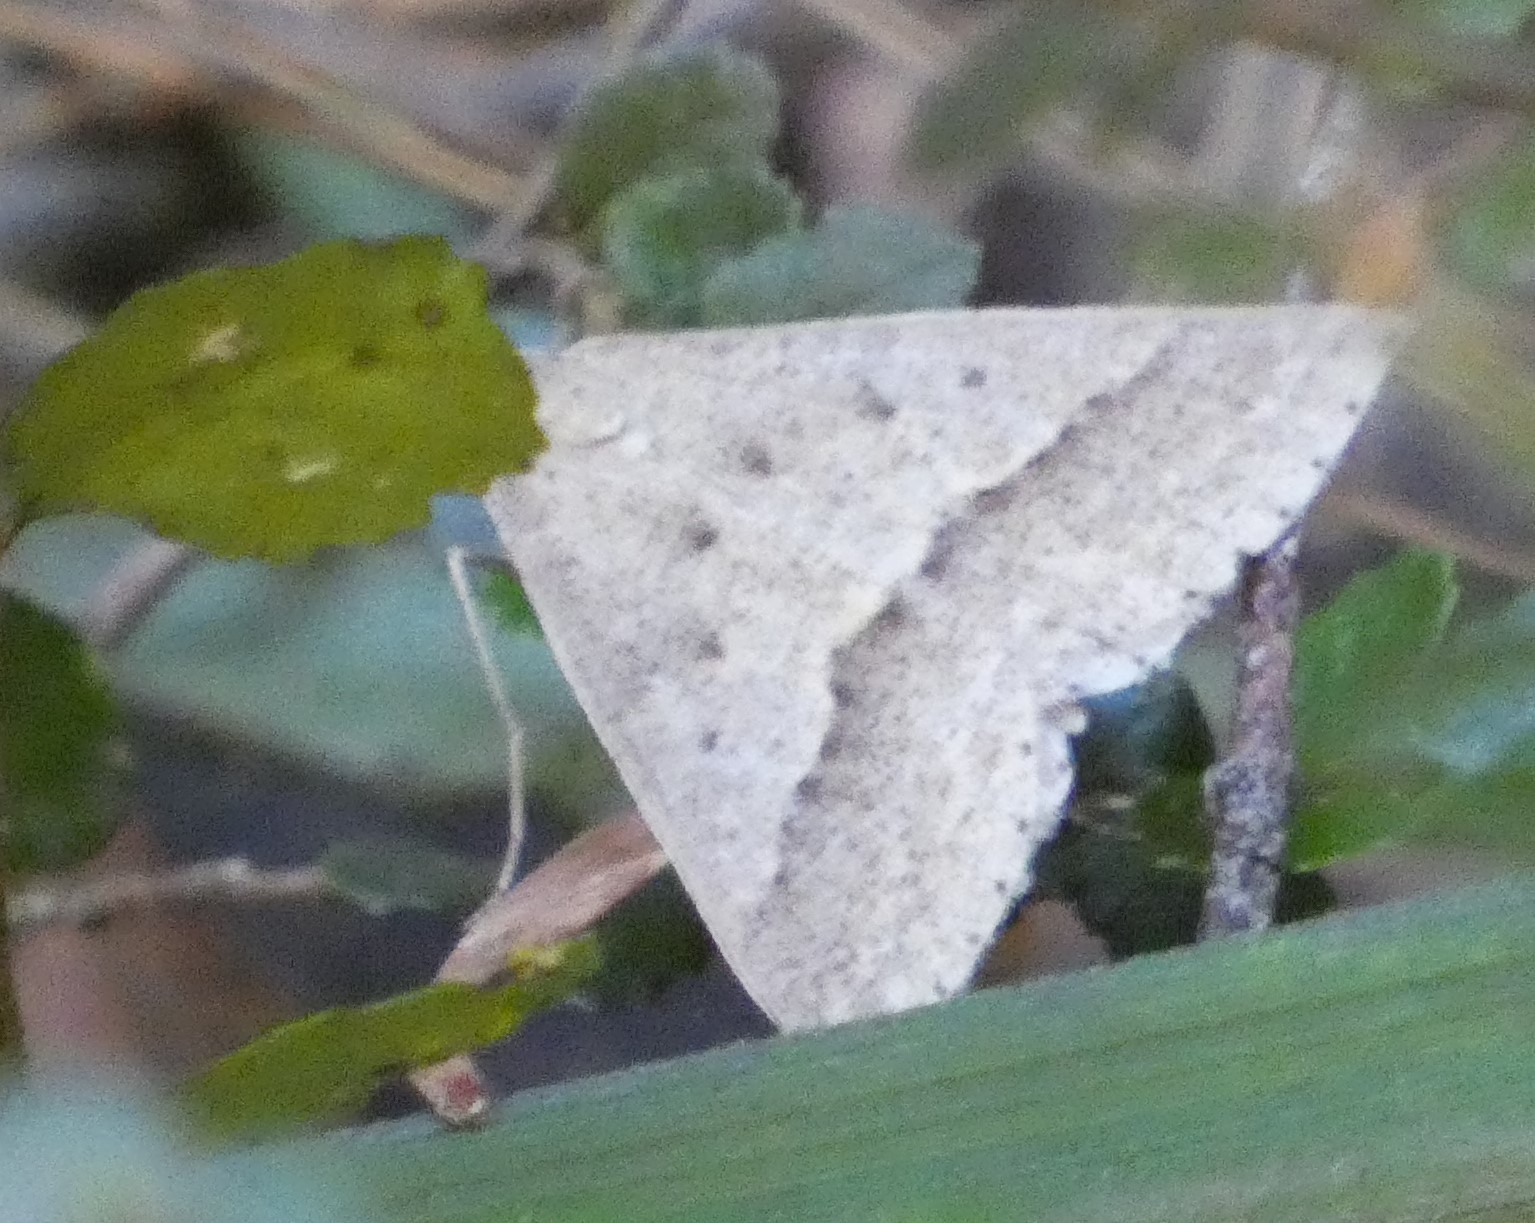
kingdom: Animalia
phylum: Arthropoda
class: Insecta
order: Lepidoptera
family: Geometridae
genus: Epidesmia
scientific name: Epidesmia hypenaria
